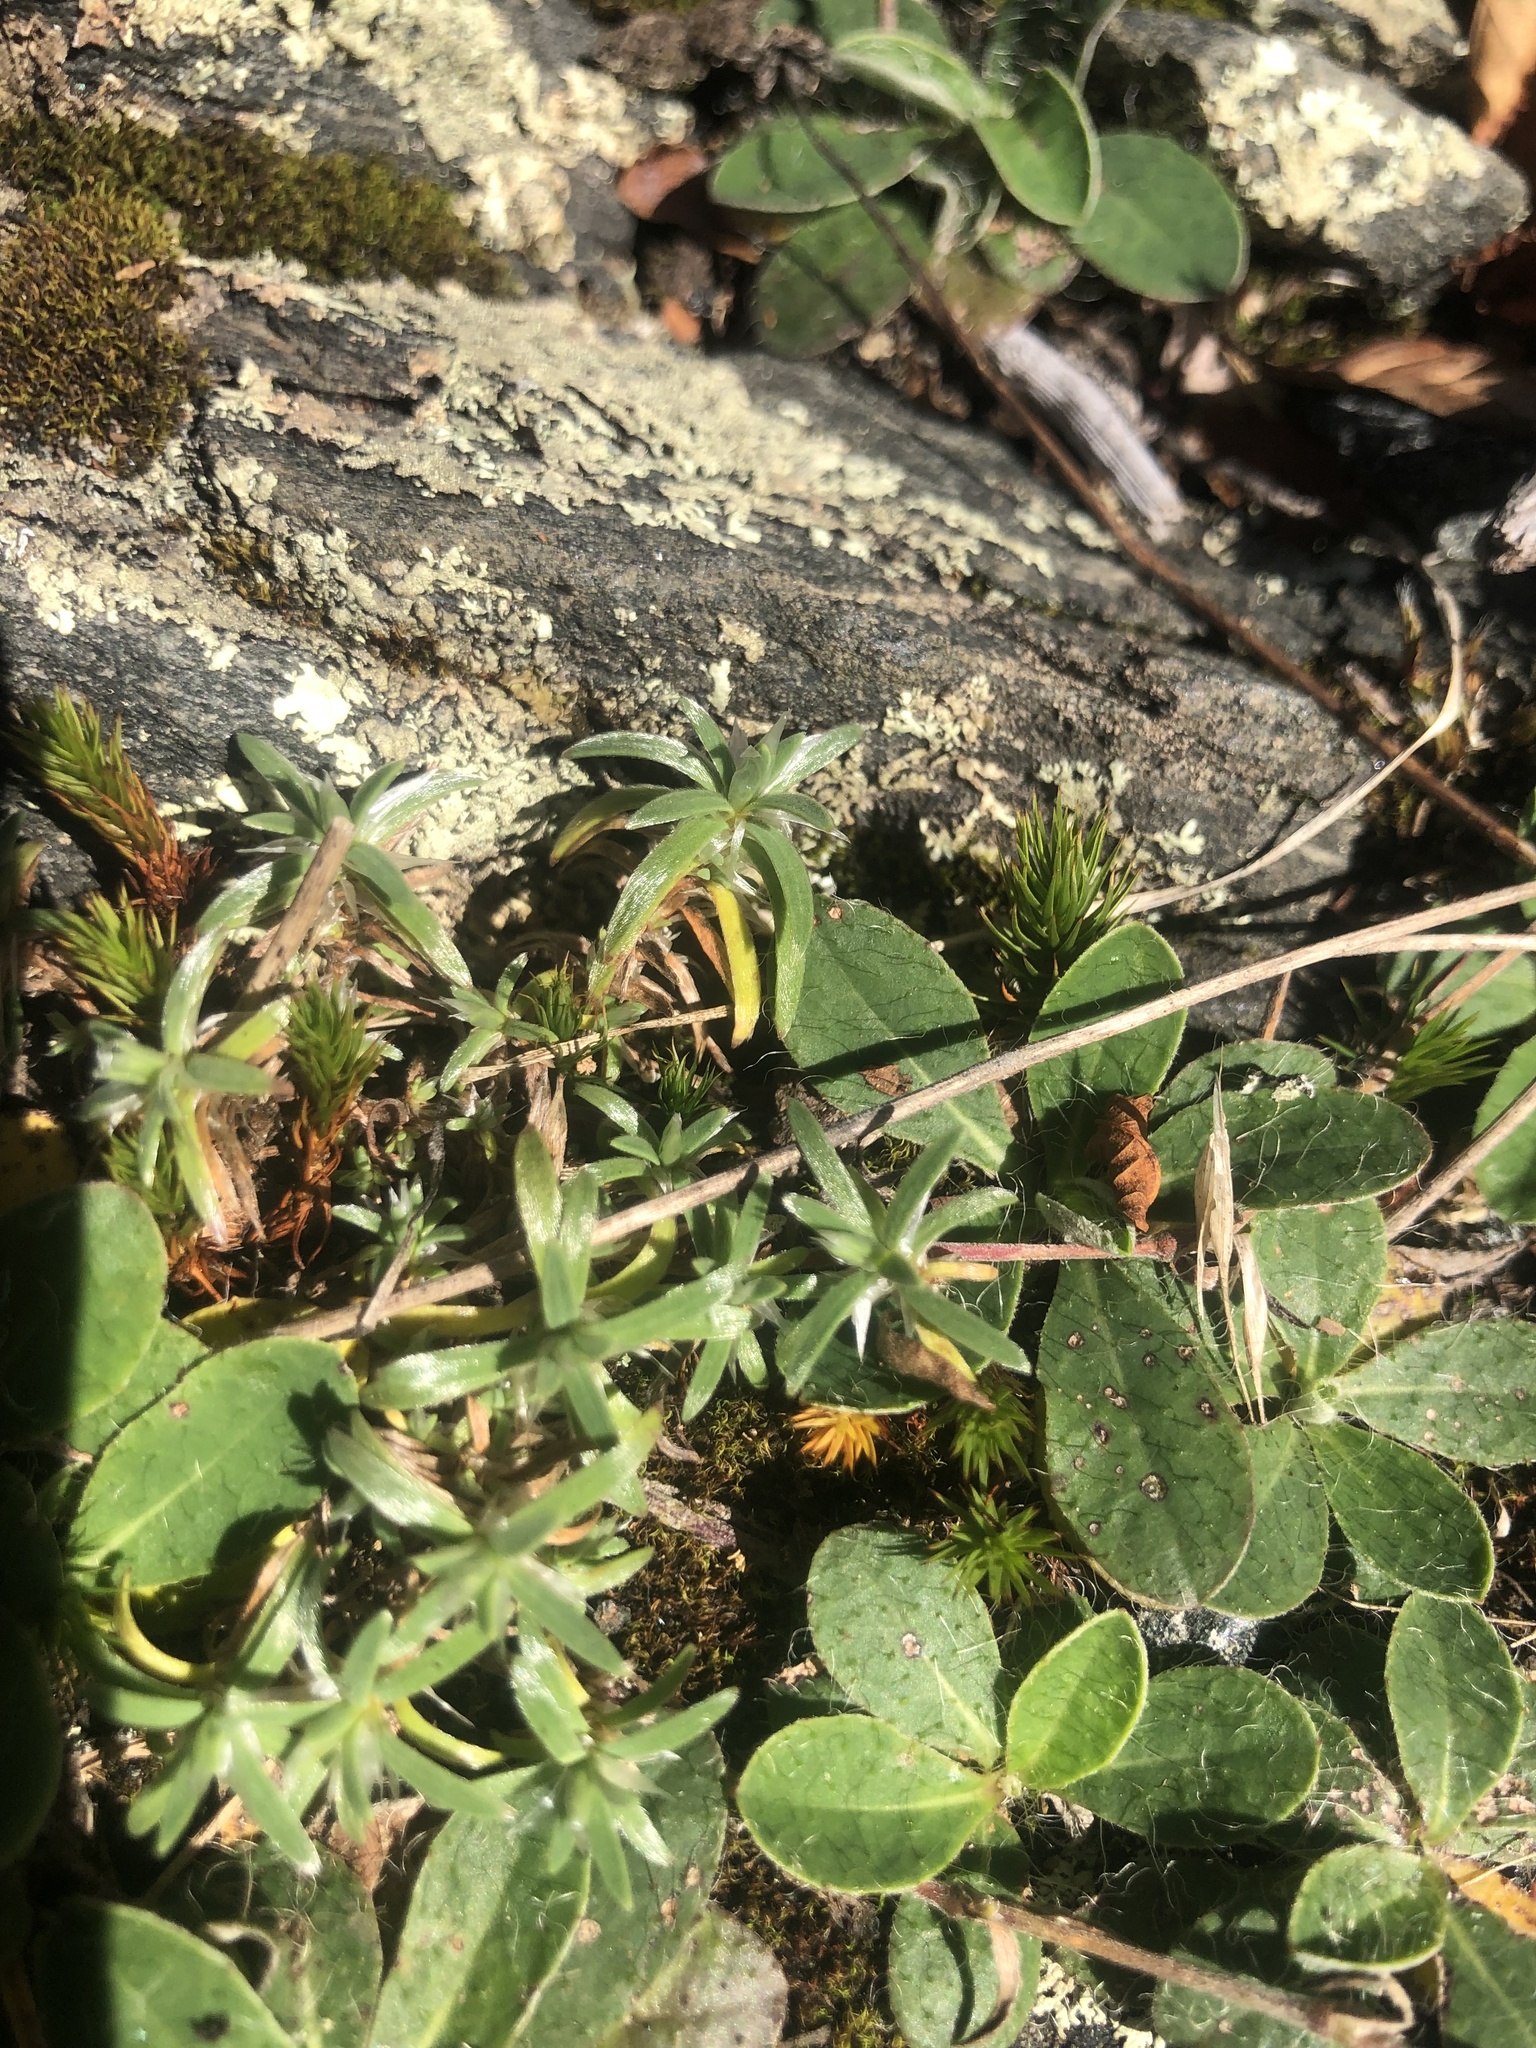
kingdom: Plantae
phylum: Tracheophyta
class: Magnoliopsida
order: Asterales
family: Asteraceae
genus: Pilosella
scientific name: Pilosella officinarum
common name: Mouse-ear hawkweed
